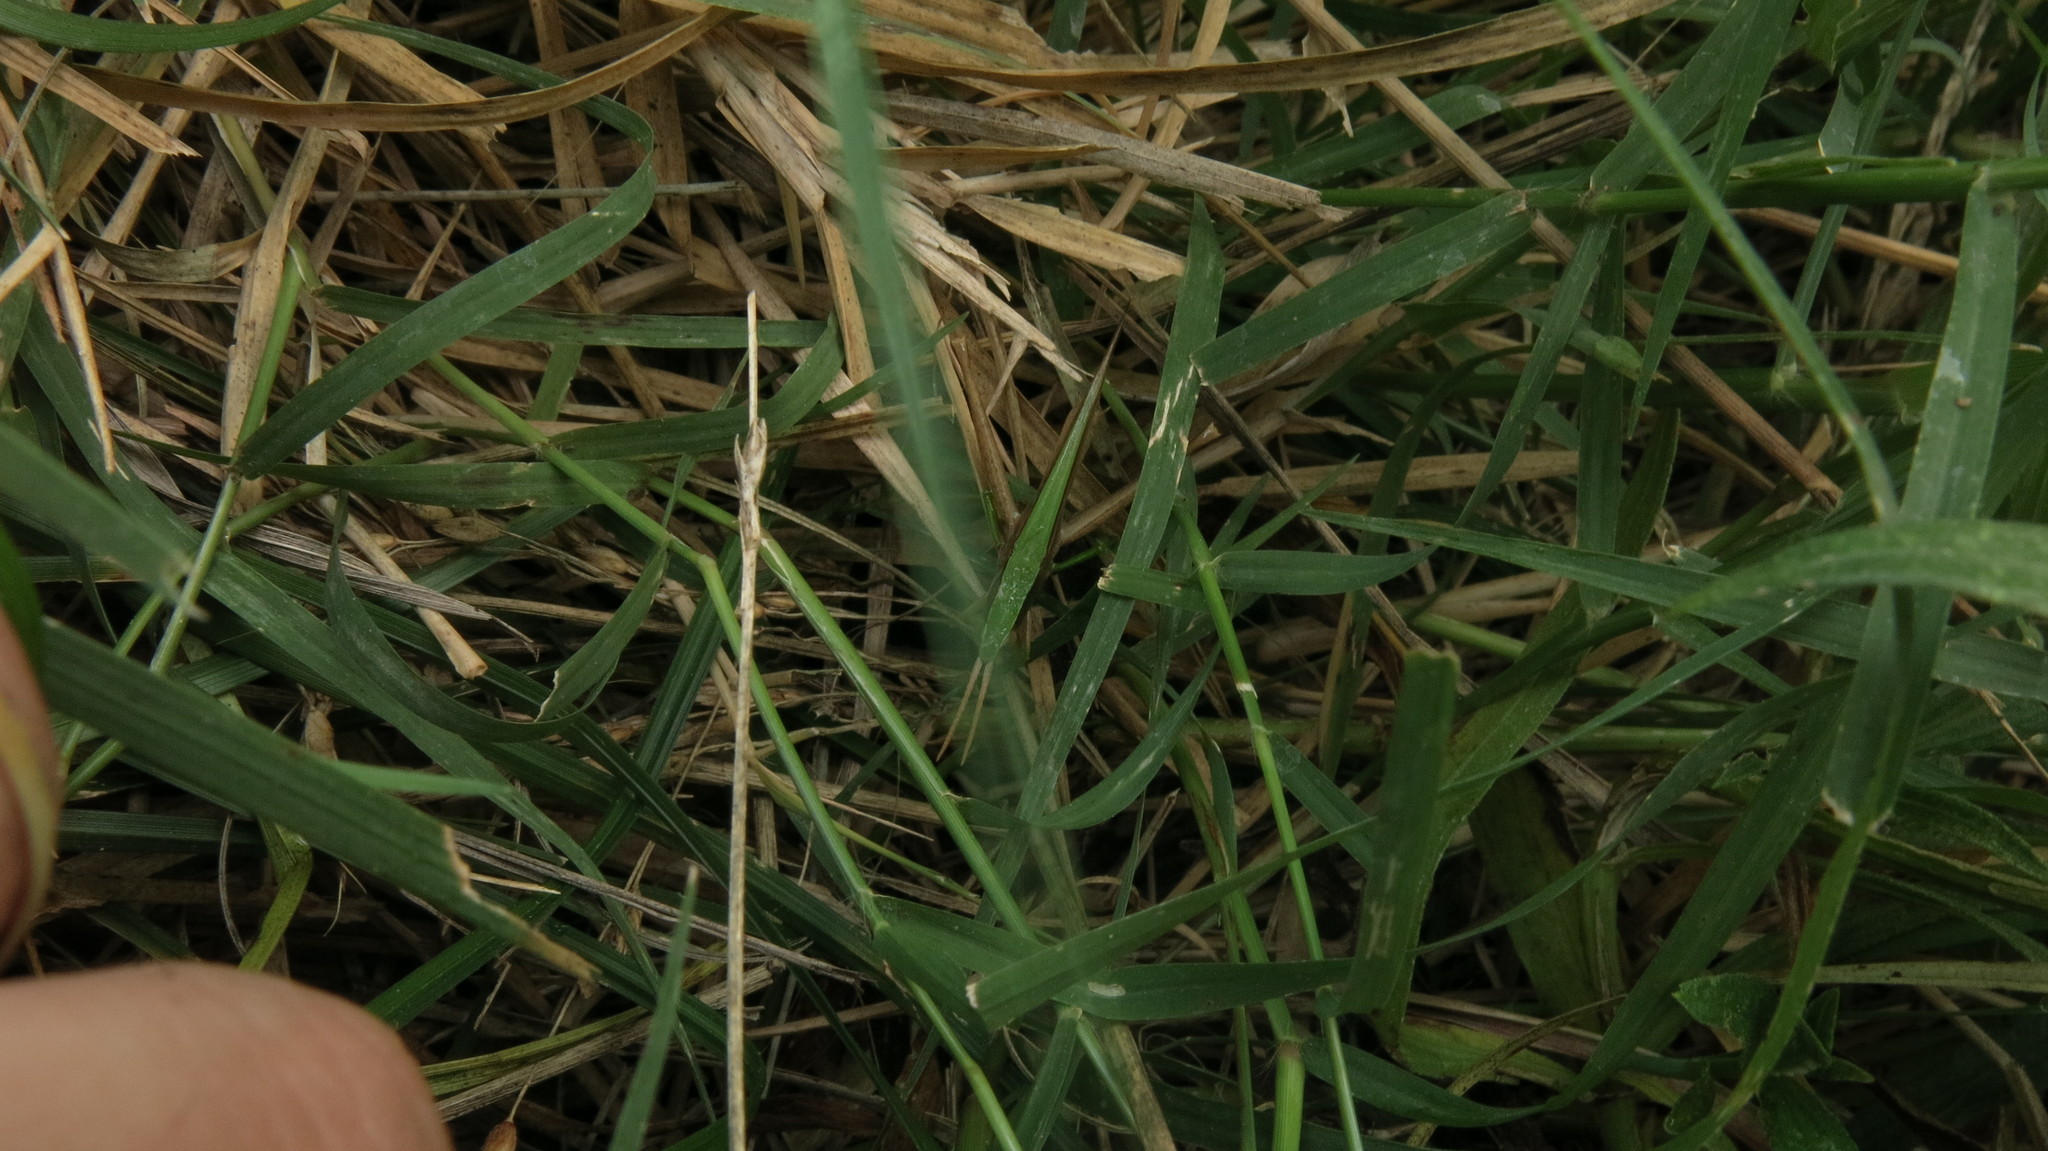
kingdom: Animalia
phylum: Arthropoda
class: Insecta
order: Orthoptera
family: Acrididae
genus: Metaleptea
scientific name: Metaleptea adspersa
